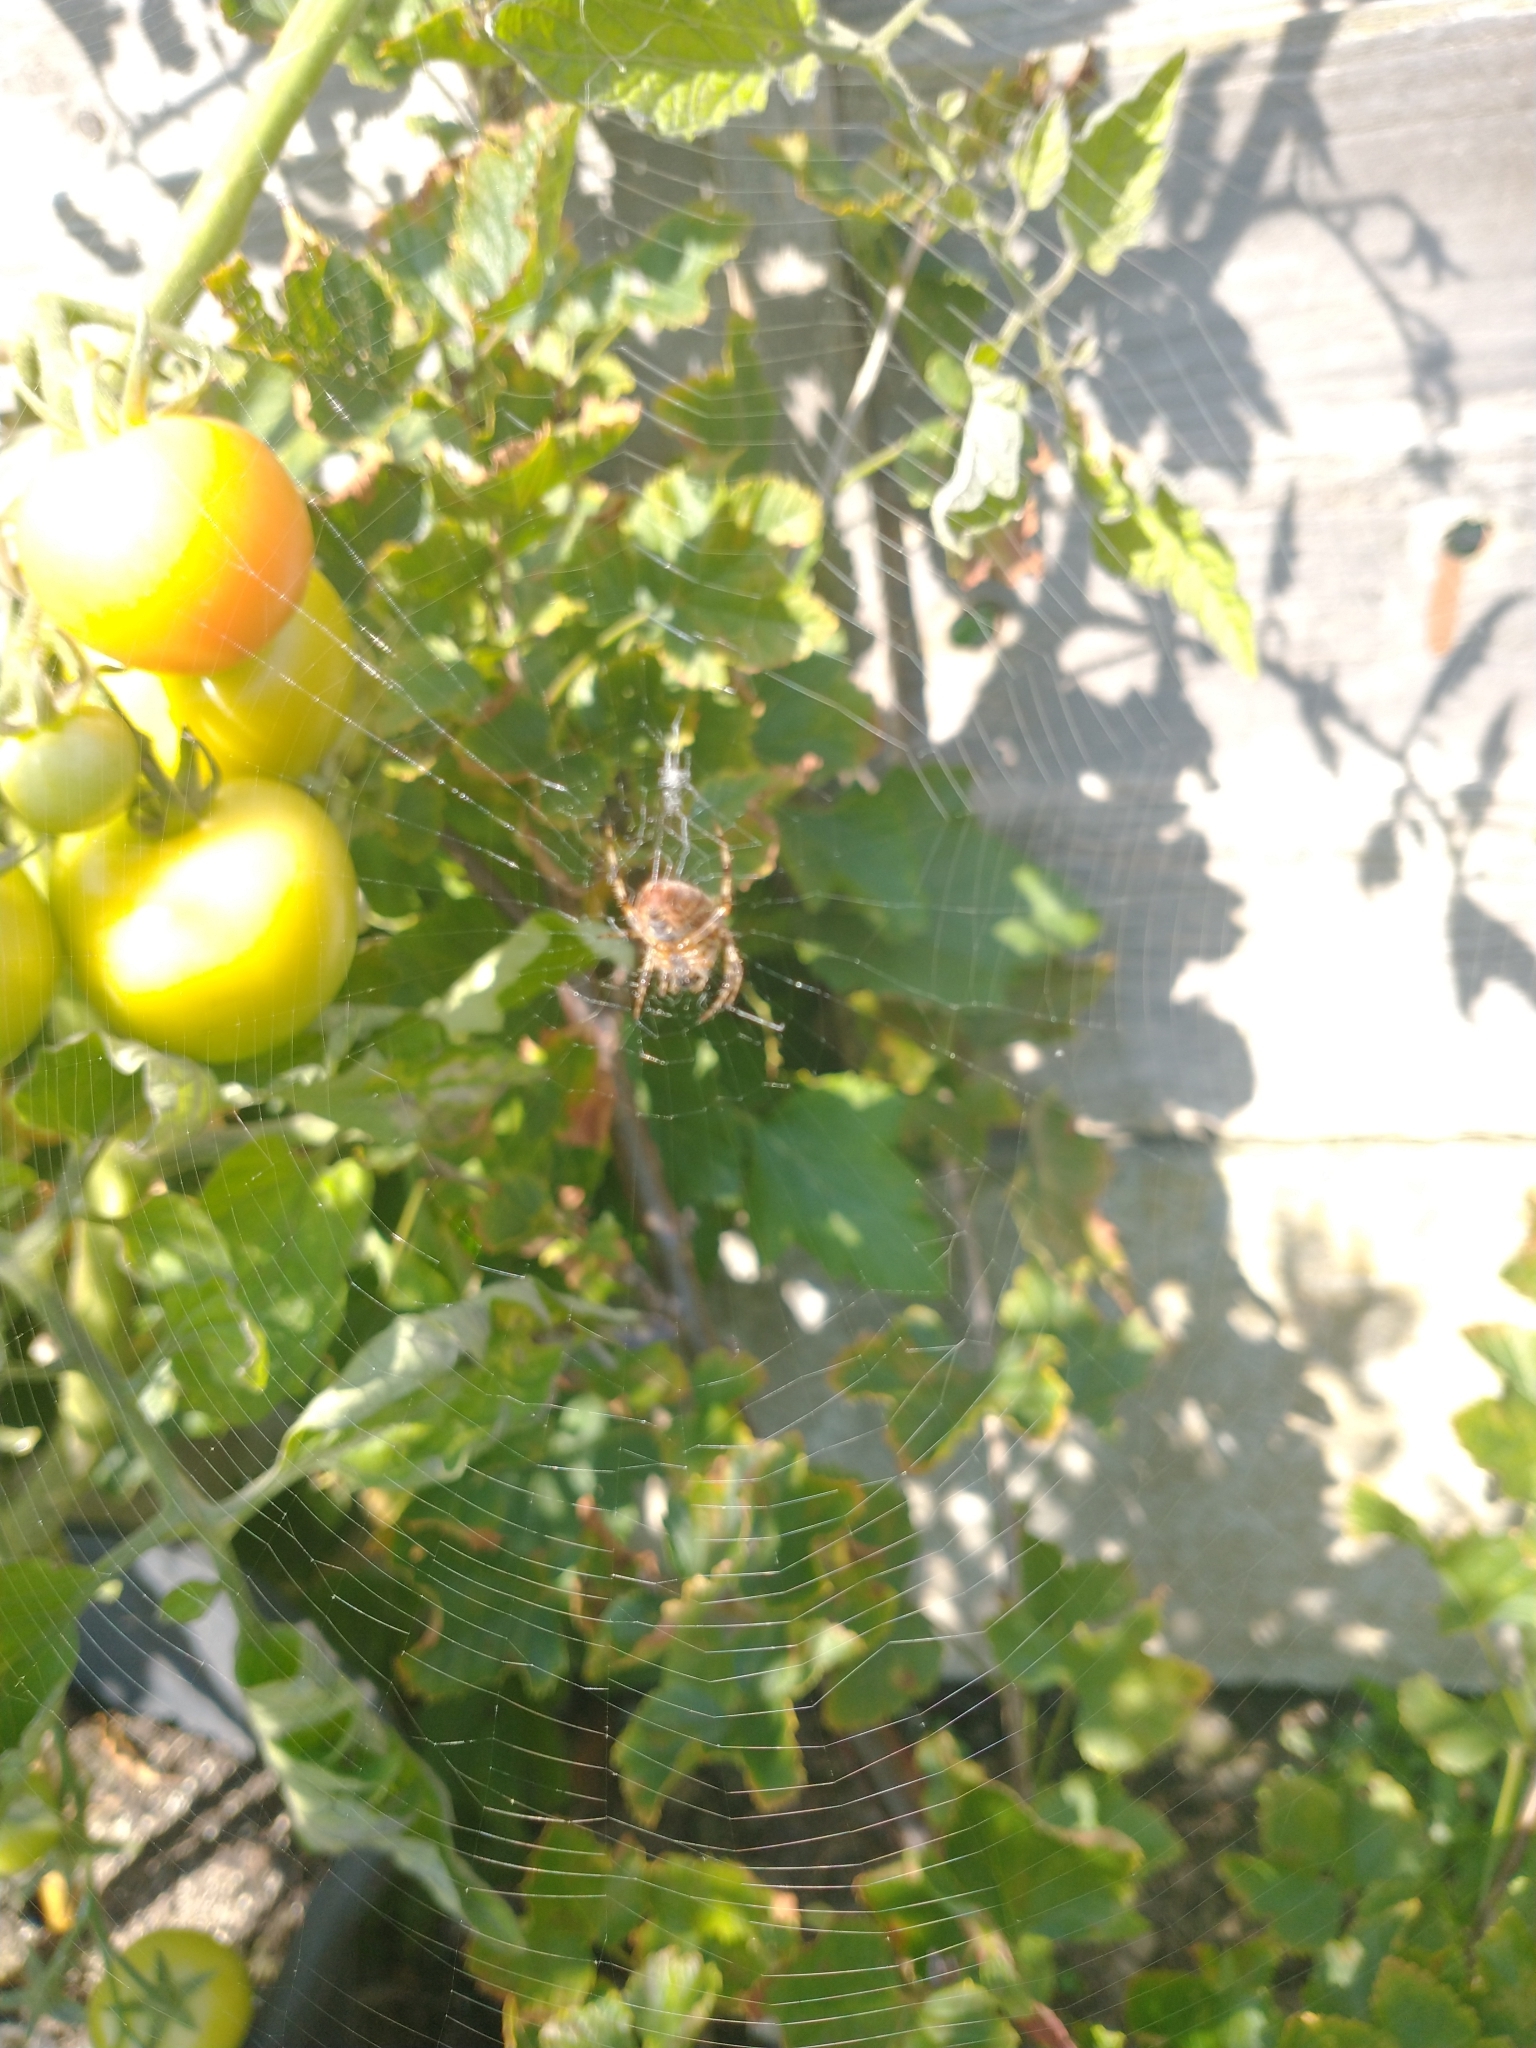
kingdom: Animalia
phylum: Arthropoda
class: Arachnida
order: Araneae
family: Araneidae
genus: Araneus
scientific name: Araneus diadematus
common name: Cross orbweaver
